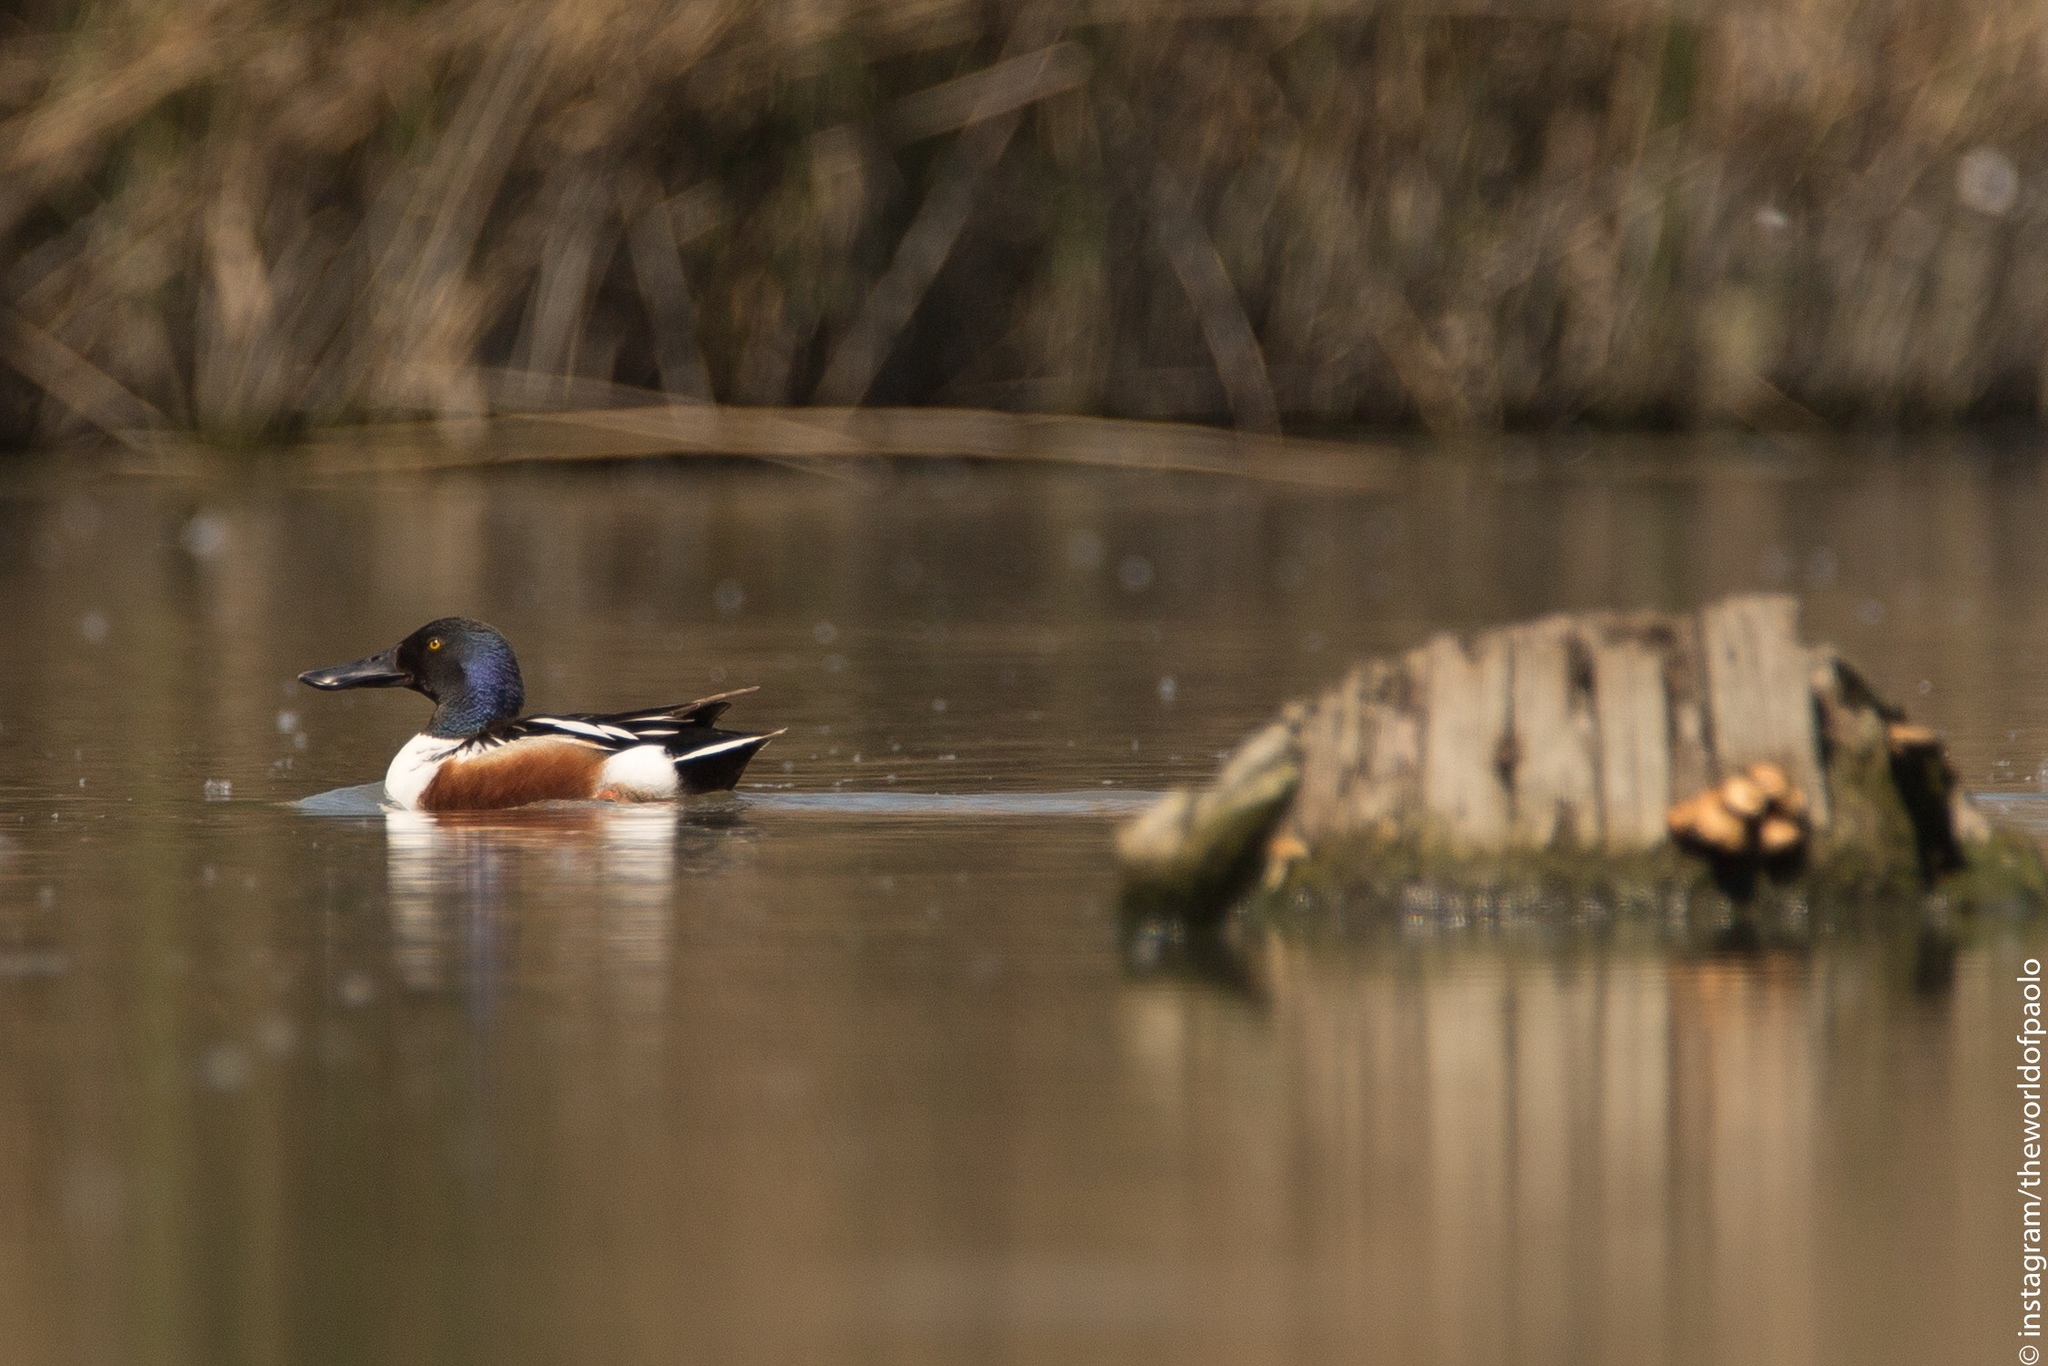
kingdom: Animalia
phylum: Chordata
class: Aves
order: Anseriformes
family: Anatidae
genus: Spatula
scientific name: Spatula clypeata
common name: Northern shoveler
